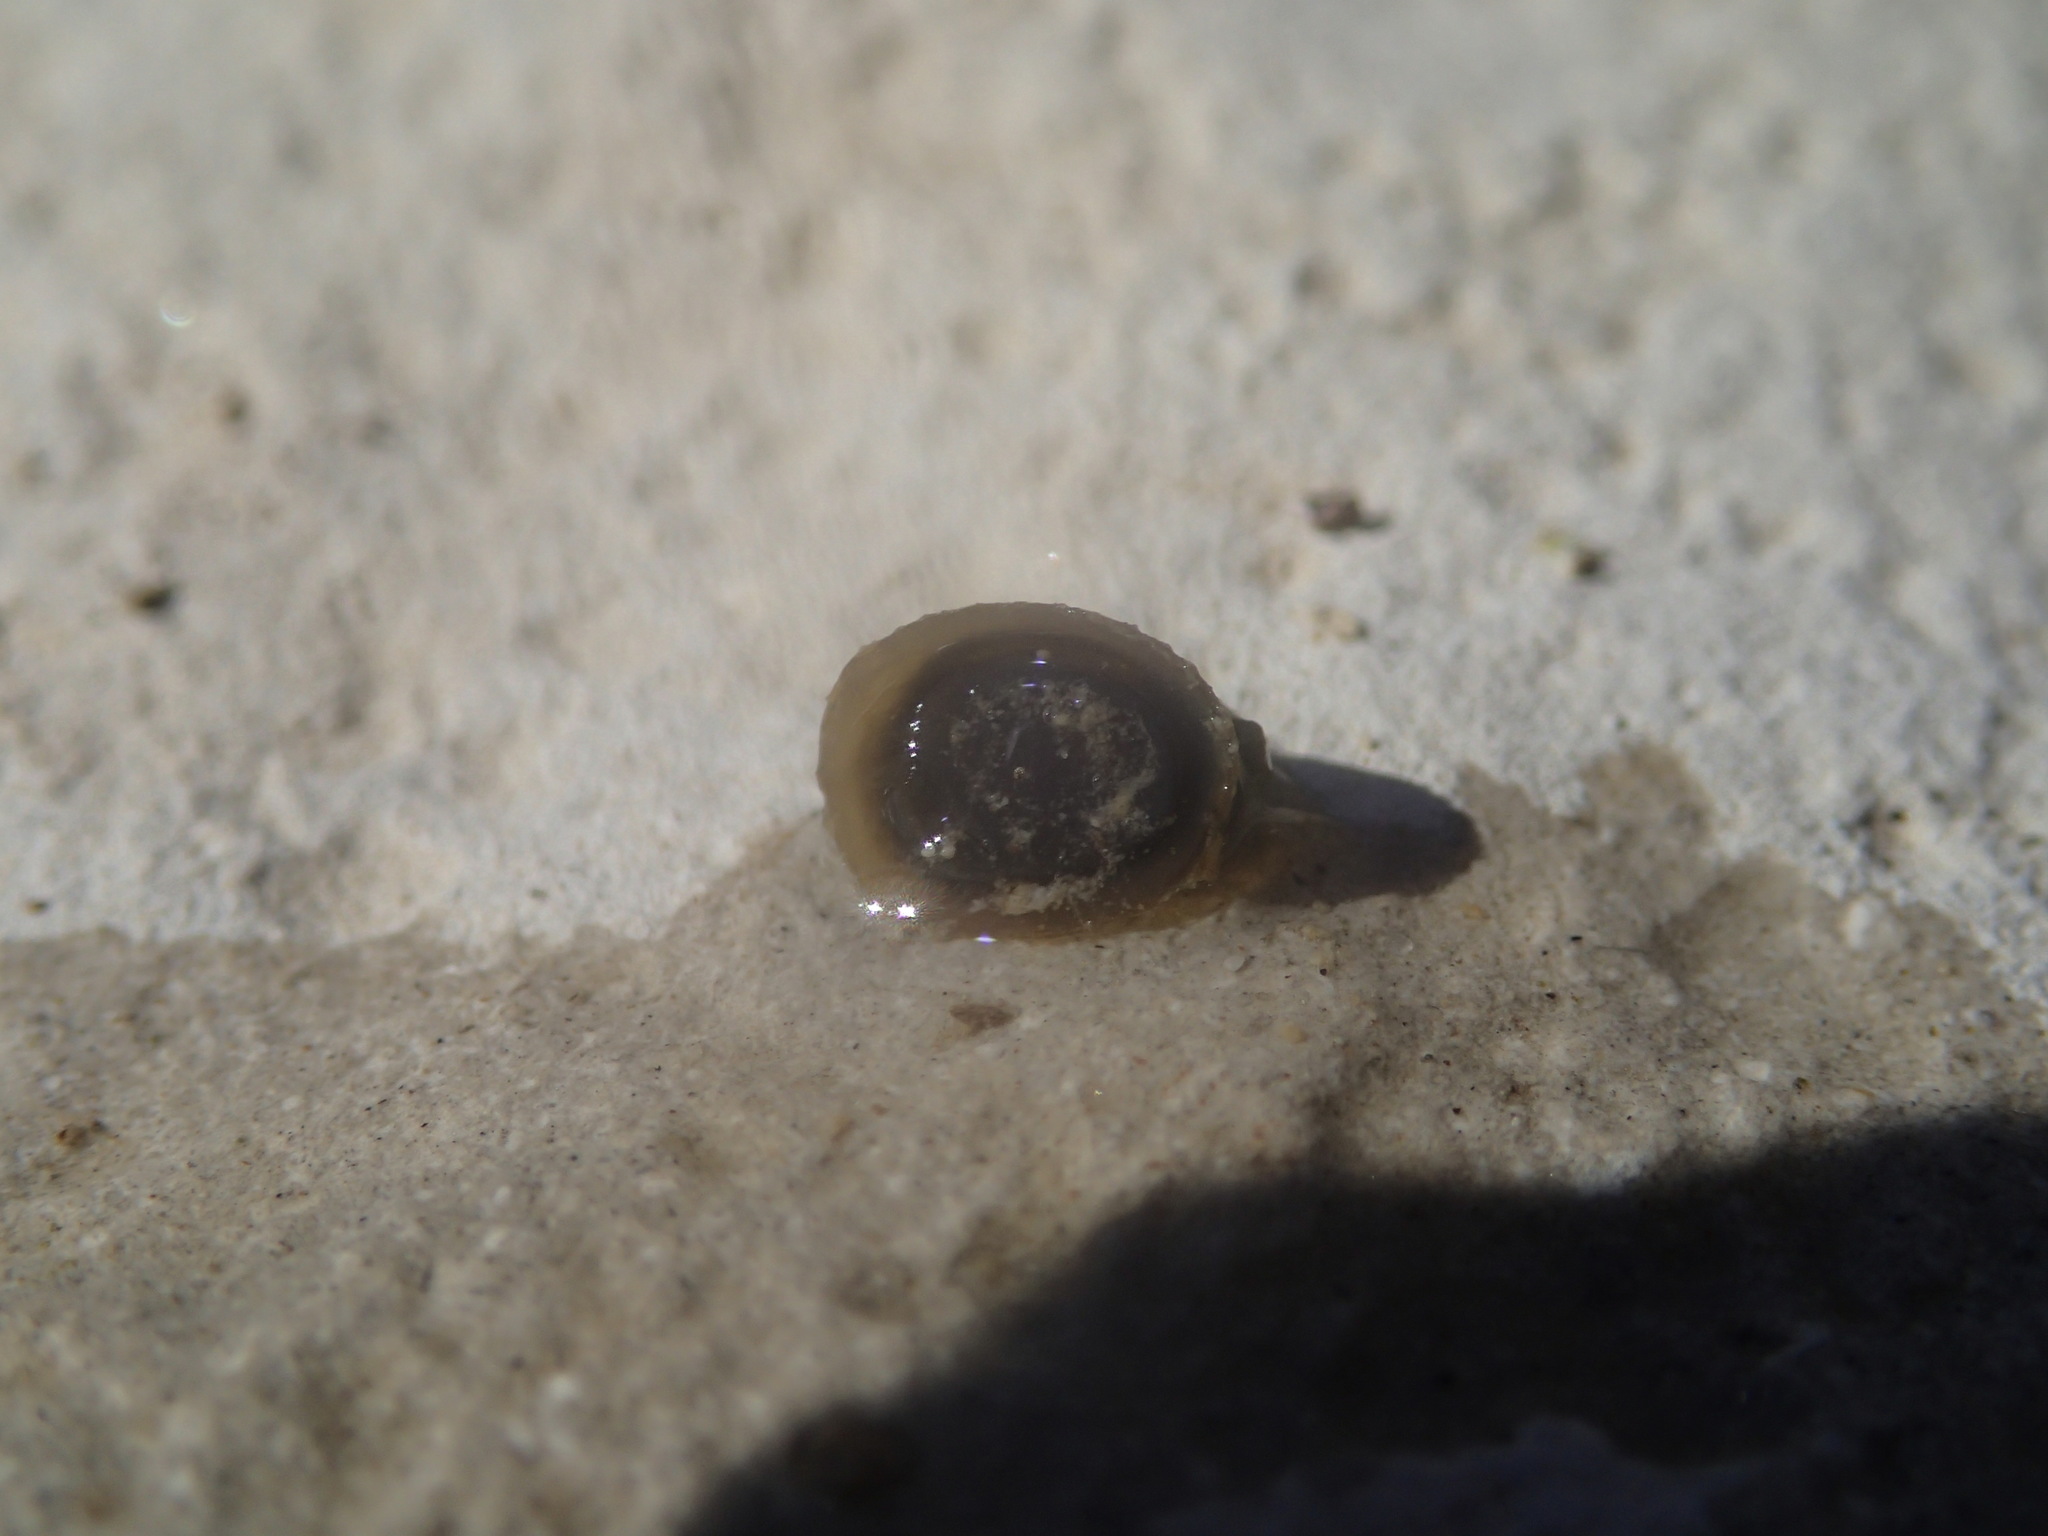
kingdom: Animalia
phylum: Mollusca
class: Gastropoda
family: Planorbidae
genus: Ancylus
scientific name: Ancylus fluviatilis
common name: River limpet
